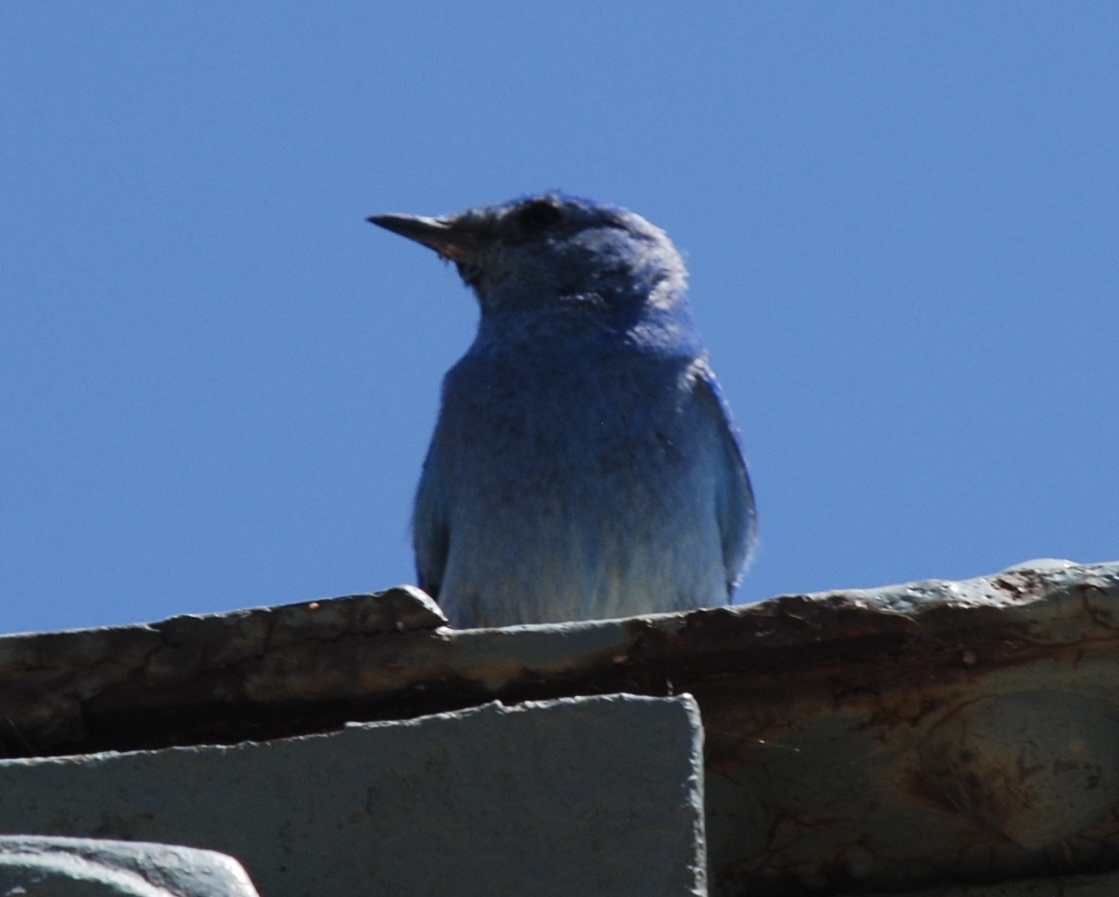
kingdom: Animalia
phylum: Chordata
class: Aves
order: Passeriformes
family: Turdidae
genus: Sialia
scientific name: Sialia currucoides
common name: Mountain bluebird
